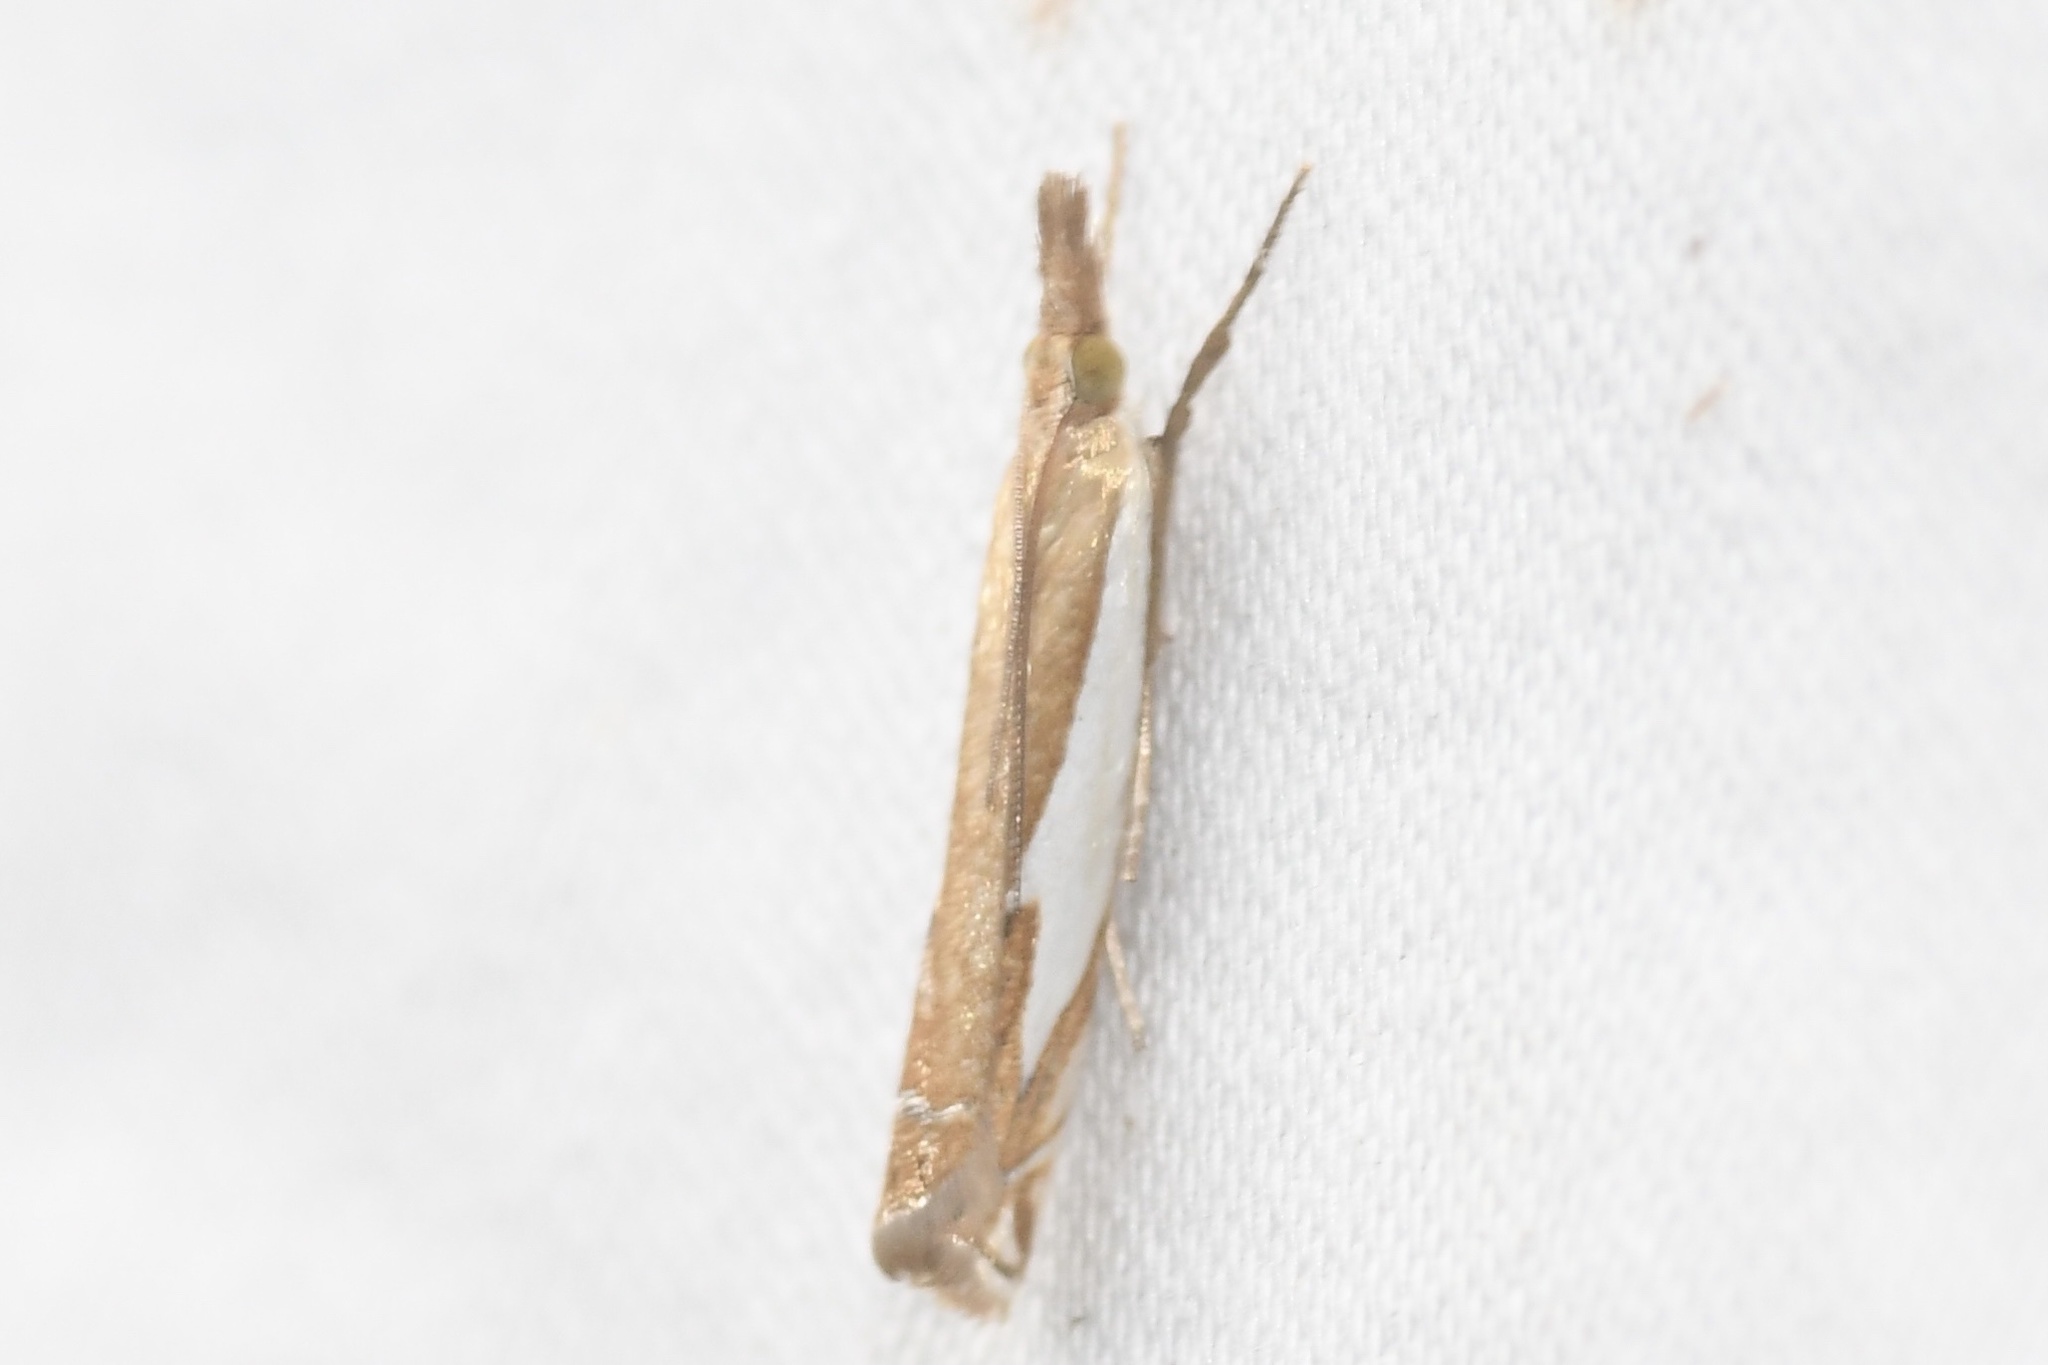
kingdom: Animalia
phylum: Arthropoda
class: Insecta
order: Lepidoptera
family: Crambidae
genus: Crambus
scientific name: Crambus bidens
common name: Forked grass-veneer
